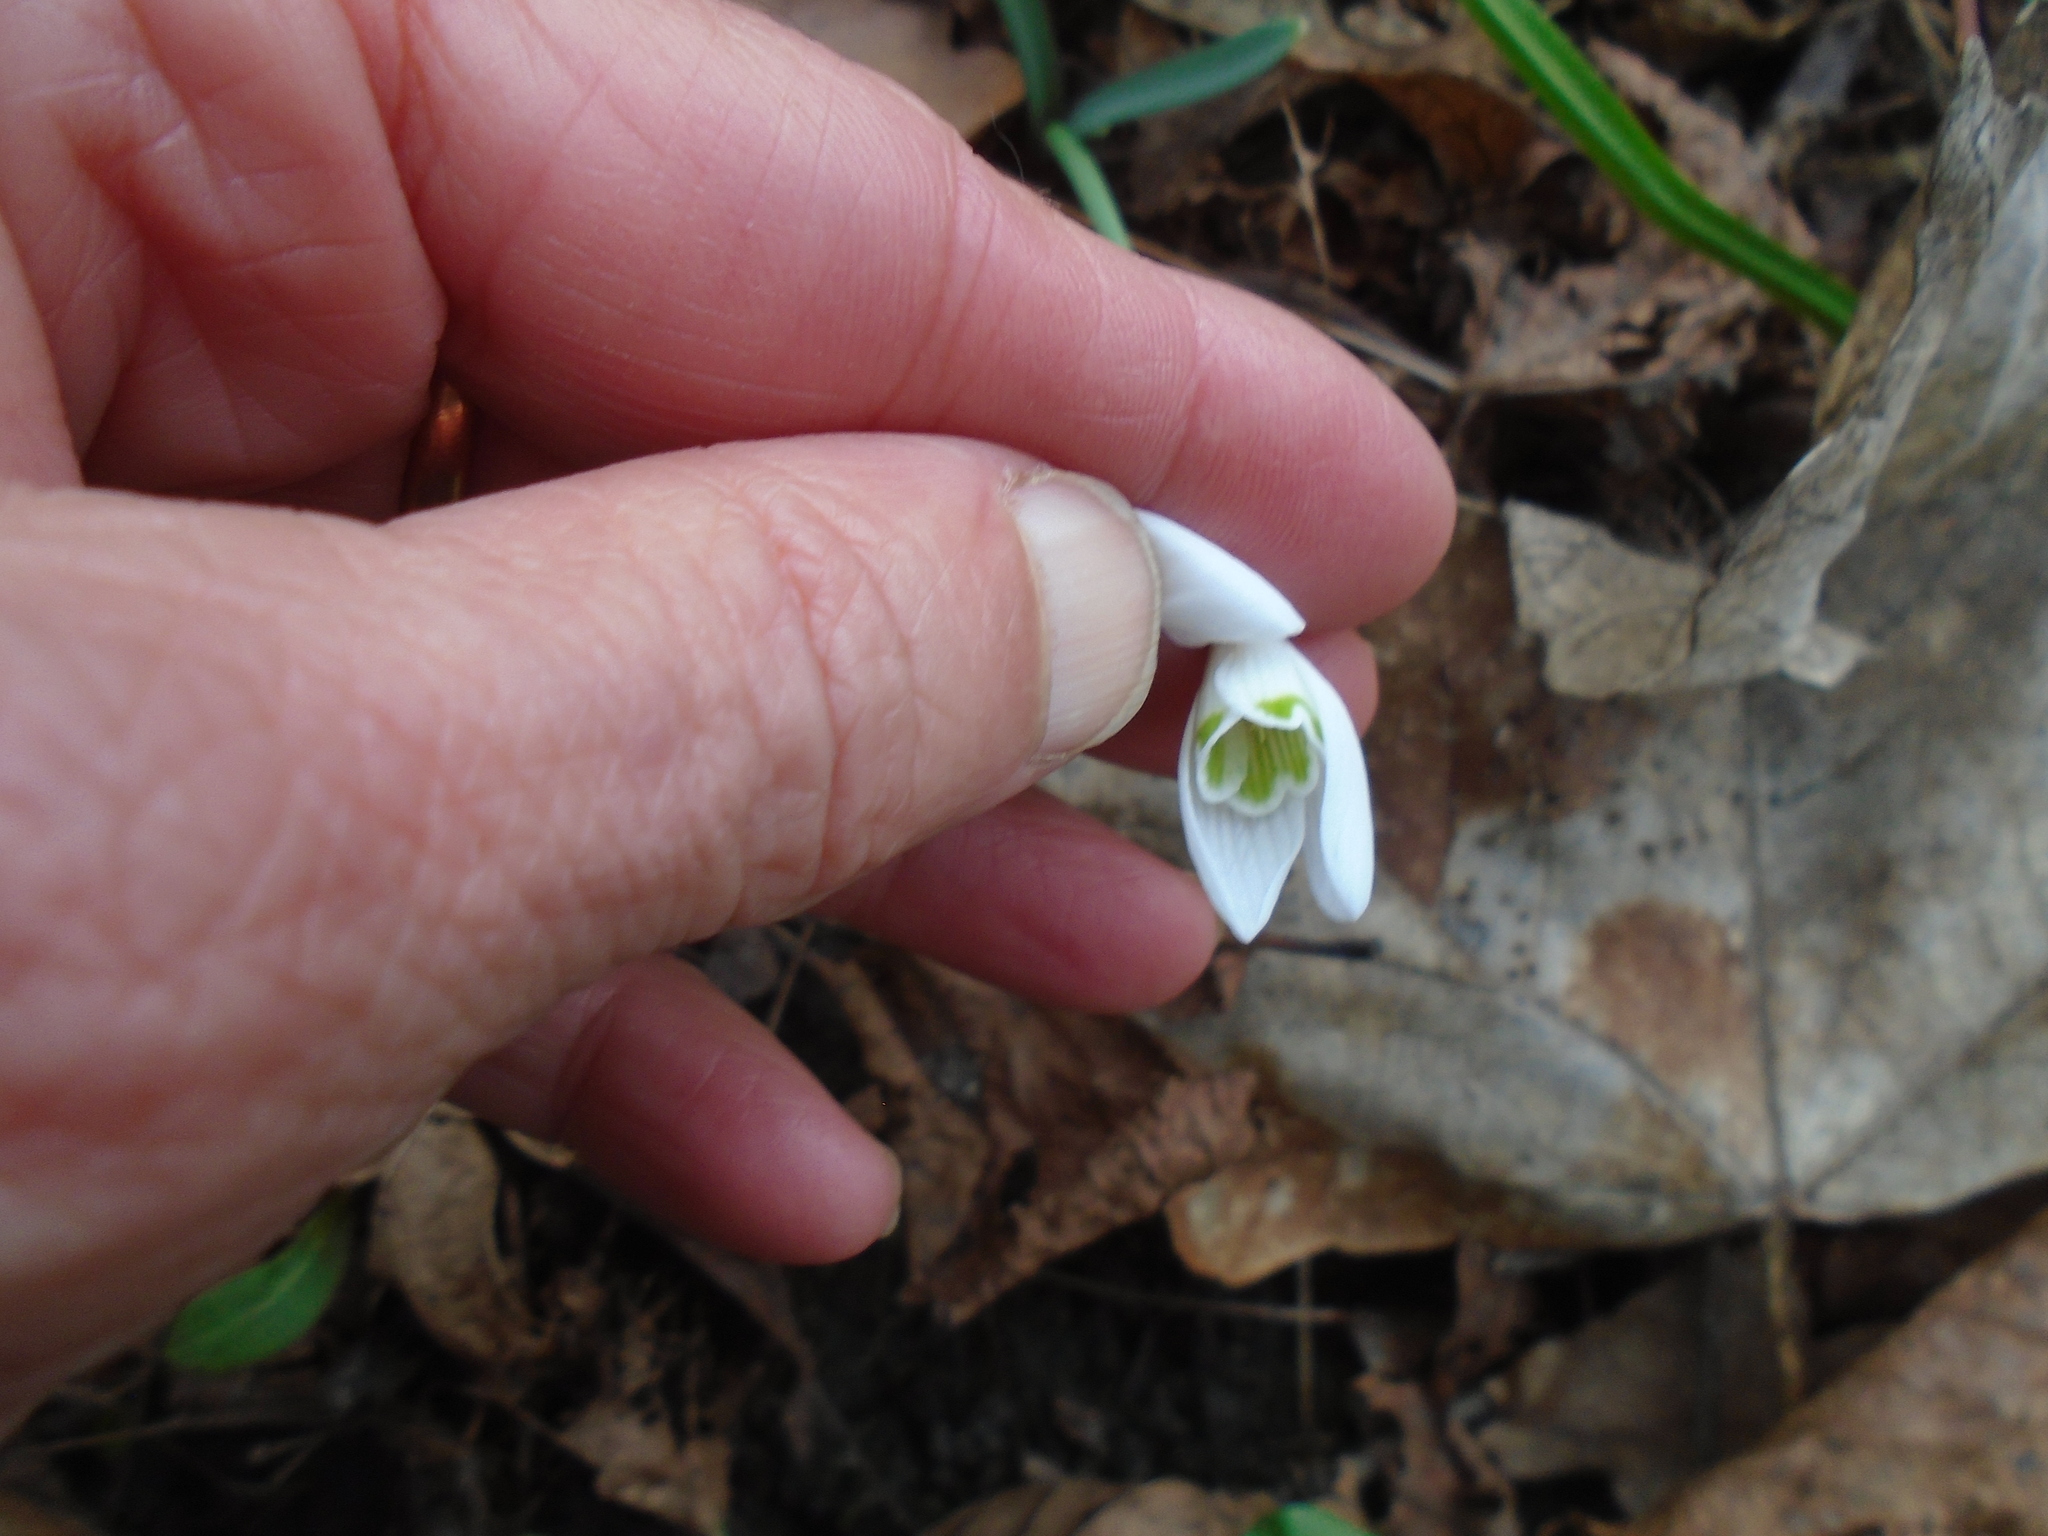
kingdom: Plantae
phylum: Tracheophyta
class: Liliopsida
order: Asparagales
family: Amaryllidaceae
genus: Galanthus
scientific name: Galanthus nivalis
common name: Snowdrop
